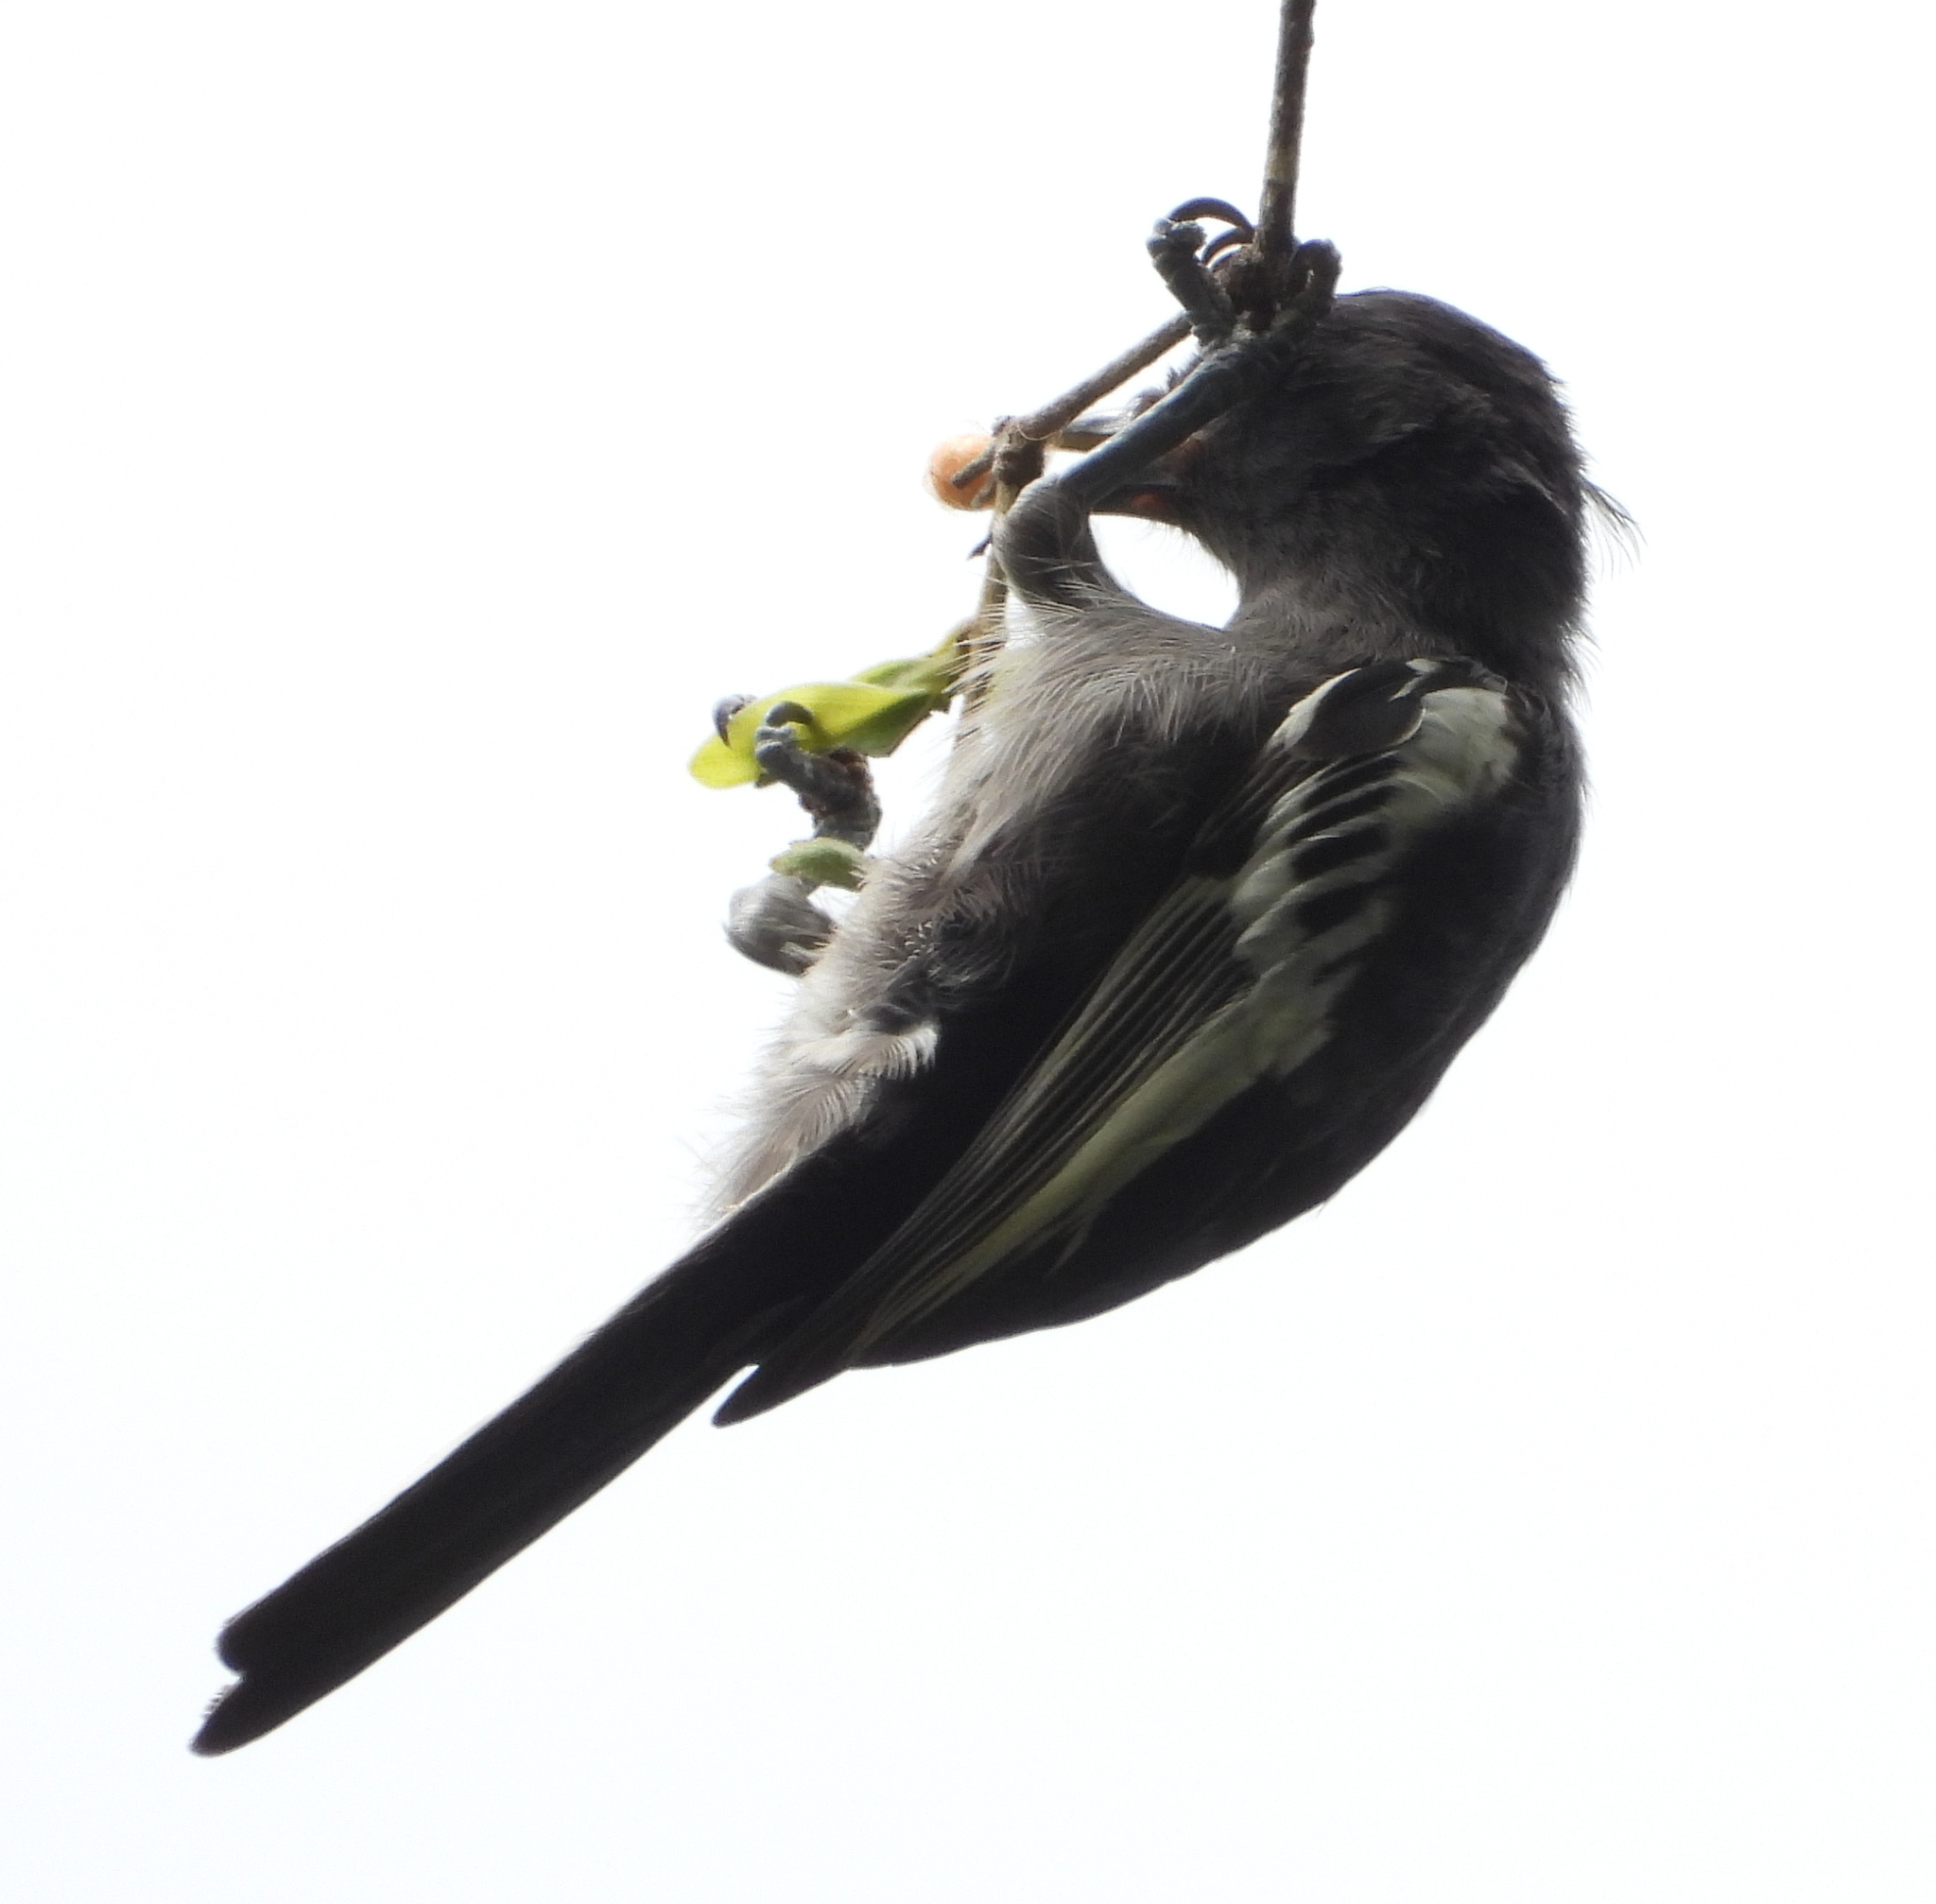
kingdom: Animalia
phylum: Chordata
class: Aves
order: Passeriformes
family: Paridae
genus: Parus
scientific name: Parus niger
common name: Southern black tit
